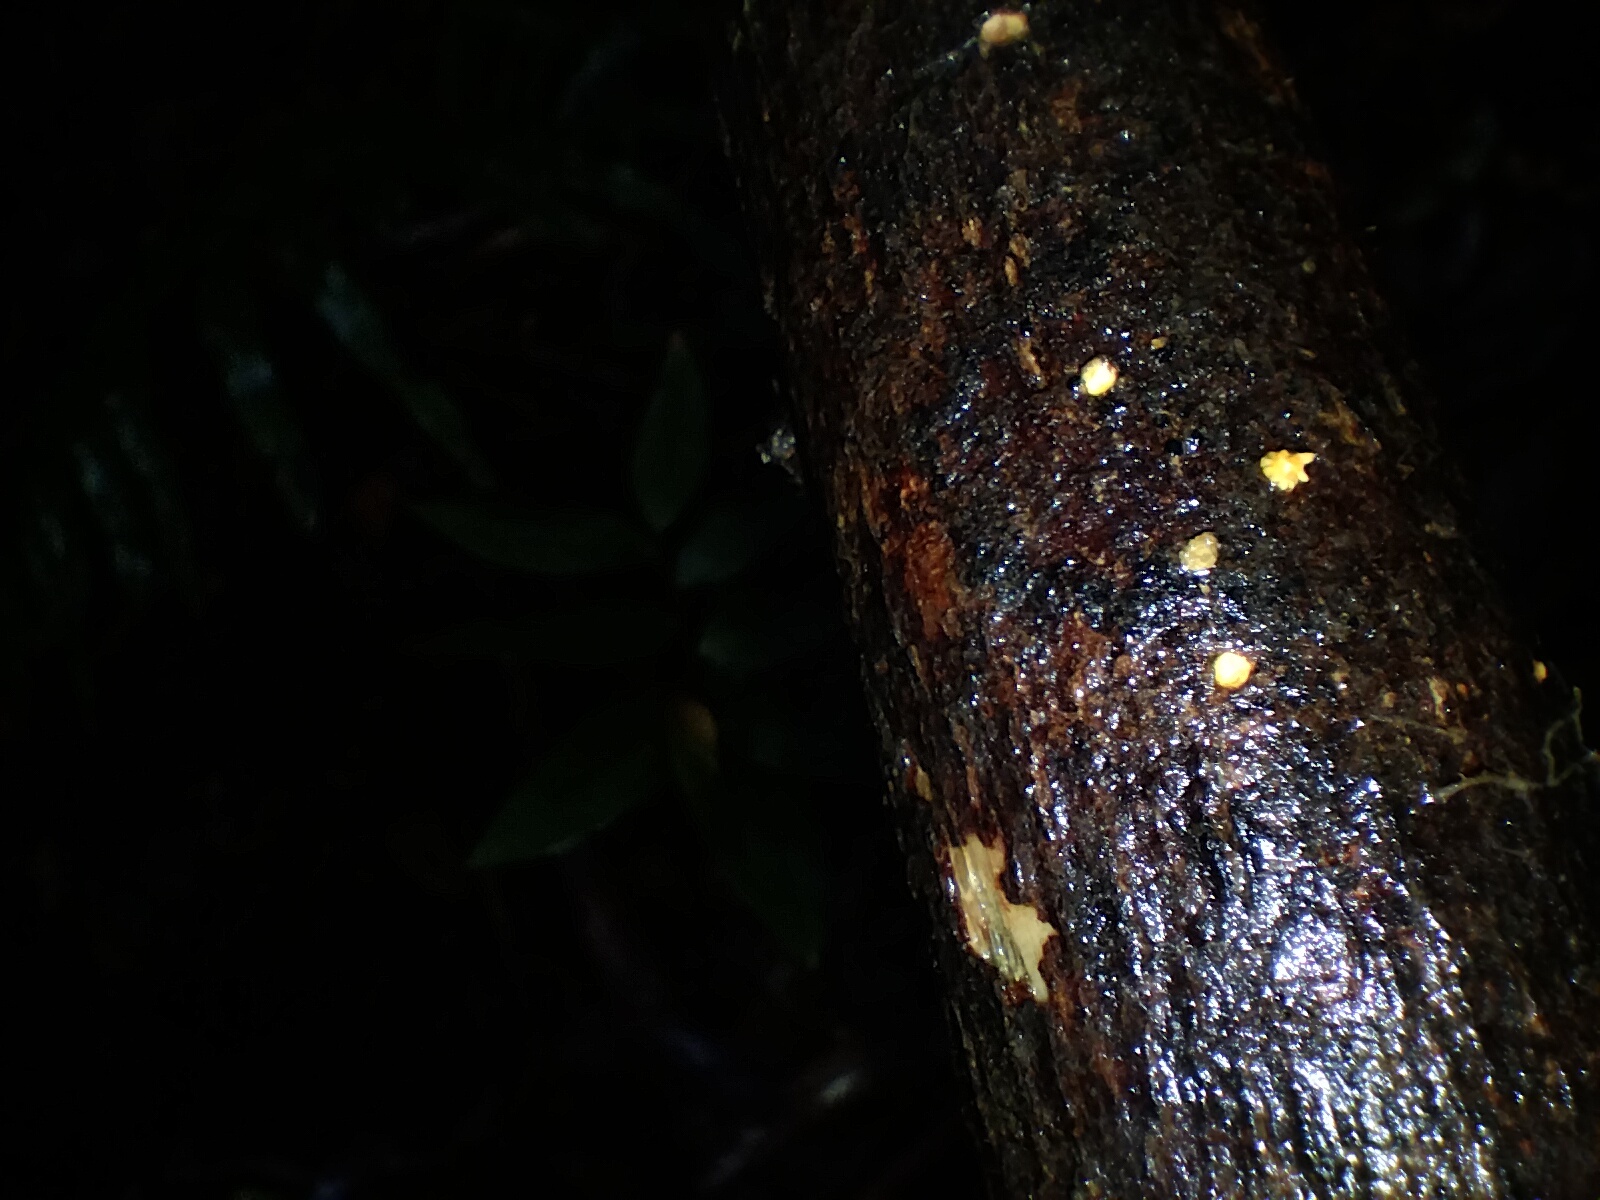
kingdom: Fungi
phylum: Basidiomycota
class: Agaricomycetes
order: Agaricales
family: Physalacriaceae
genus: Cyptotrama
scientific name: Cyptotrama asprata
